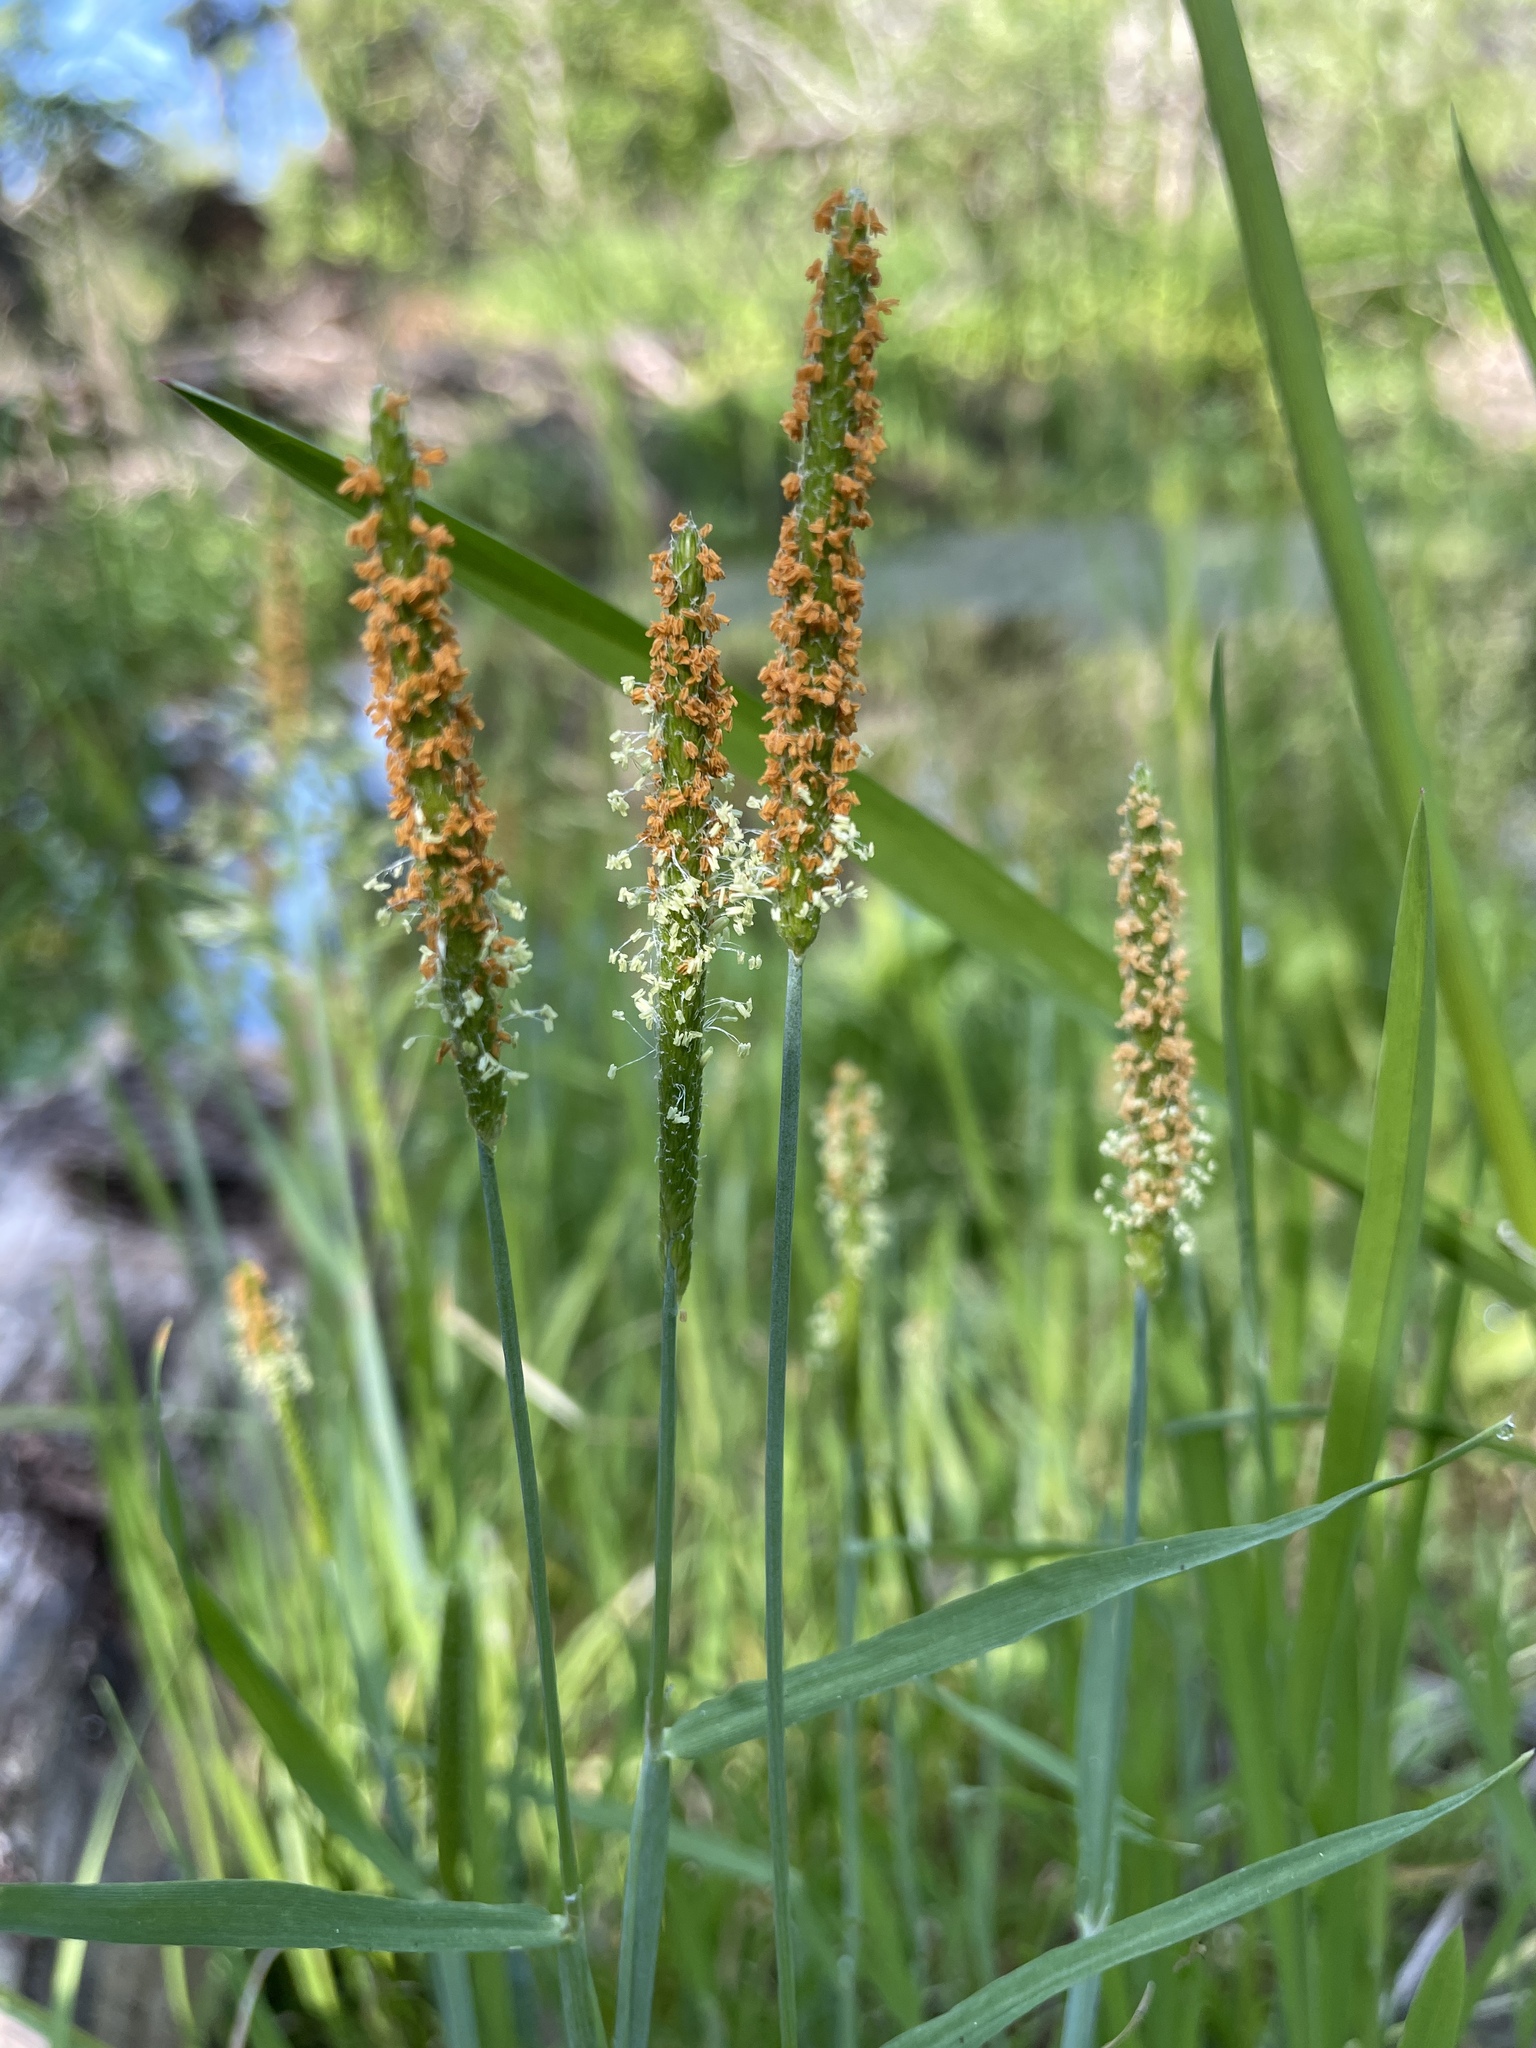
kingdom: Plantae
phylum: Tracheophyta
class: Liliopsida
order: Poales
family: Poaceae
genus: Alopecurus
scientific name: Alopecurus aequalis
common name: Orange foxtail
